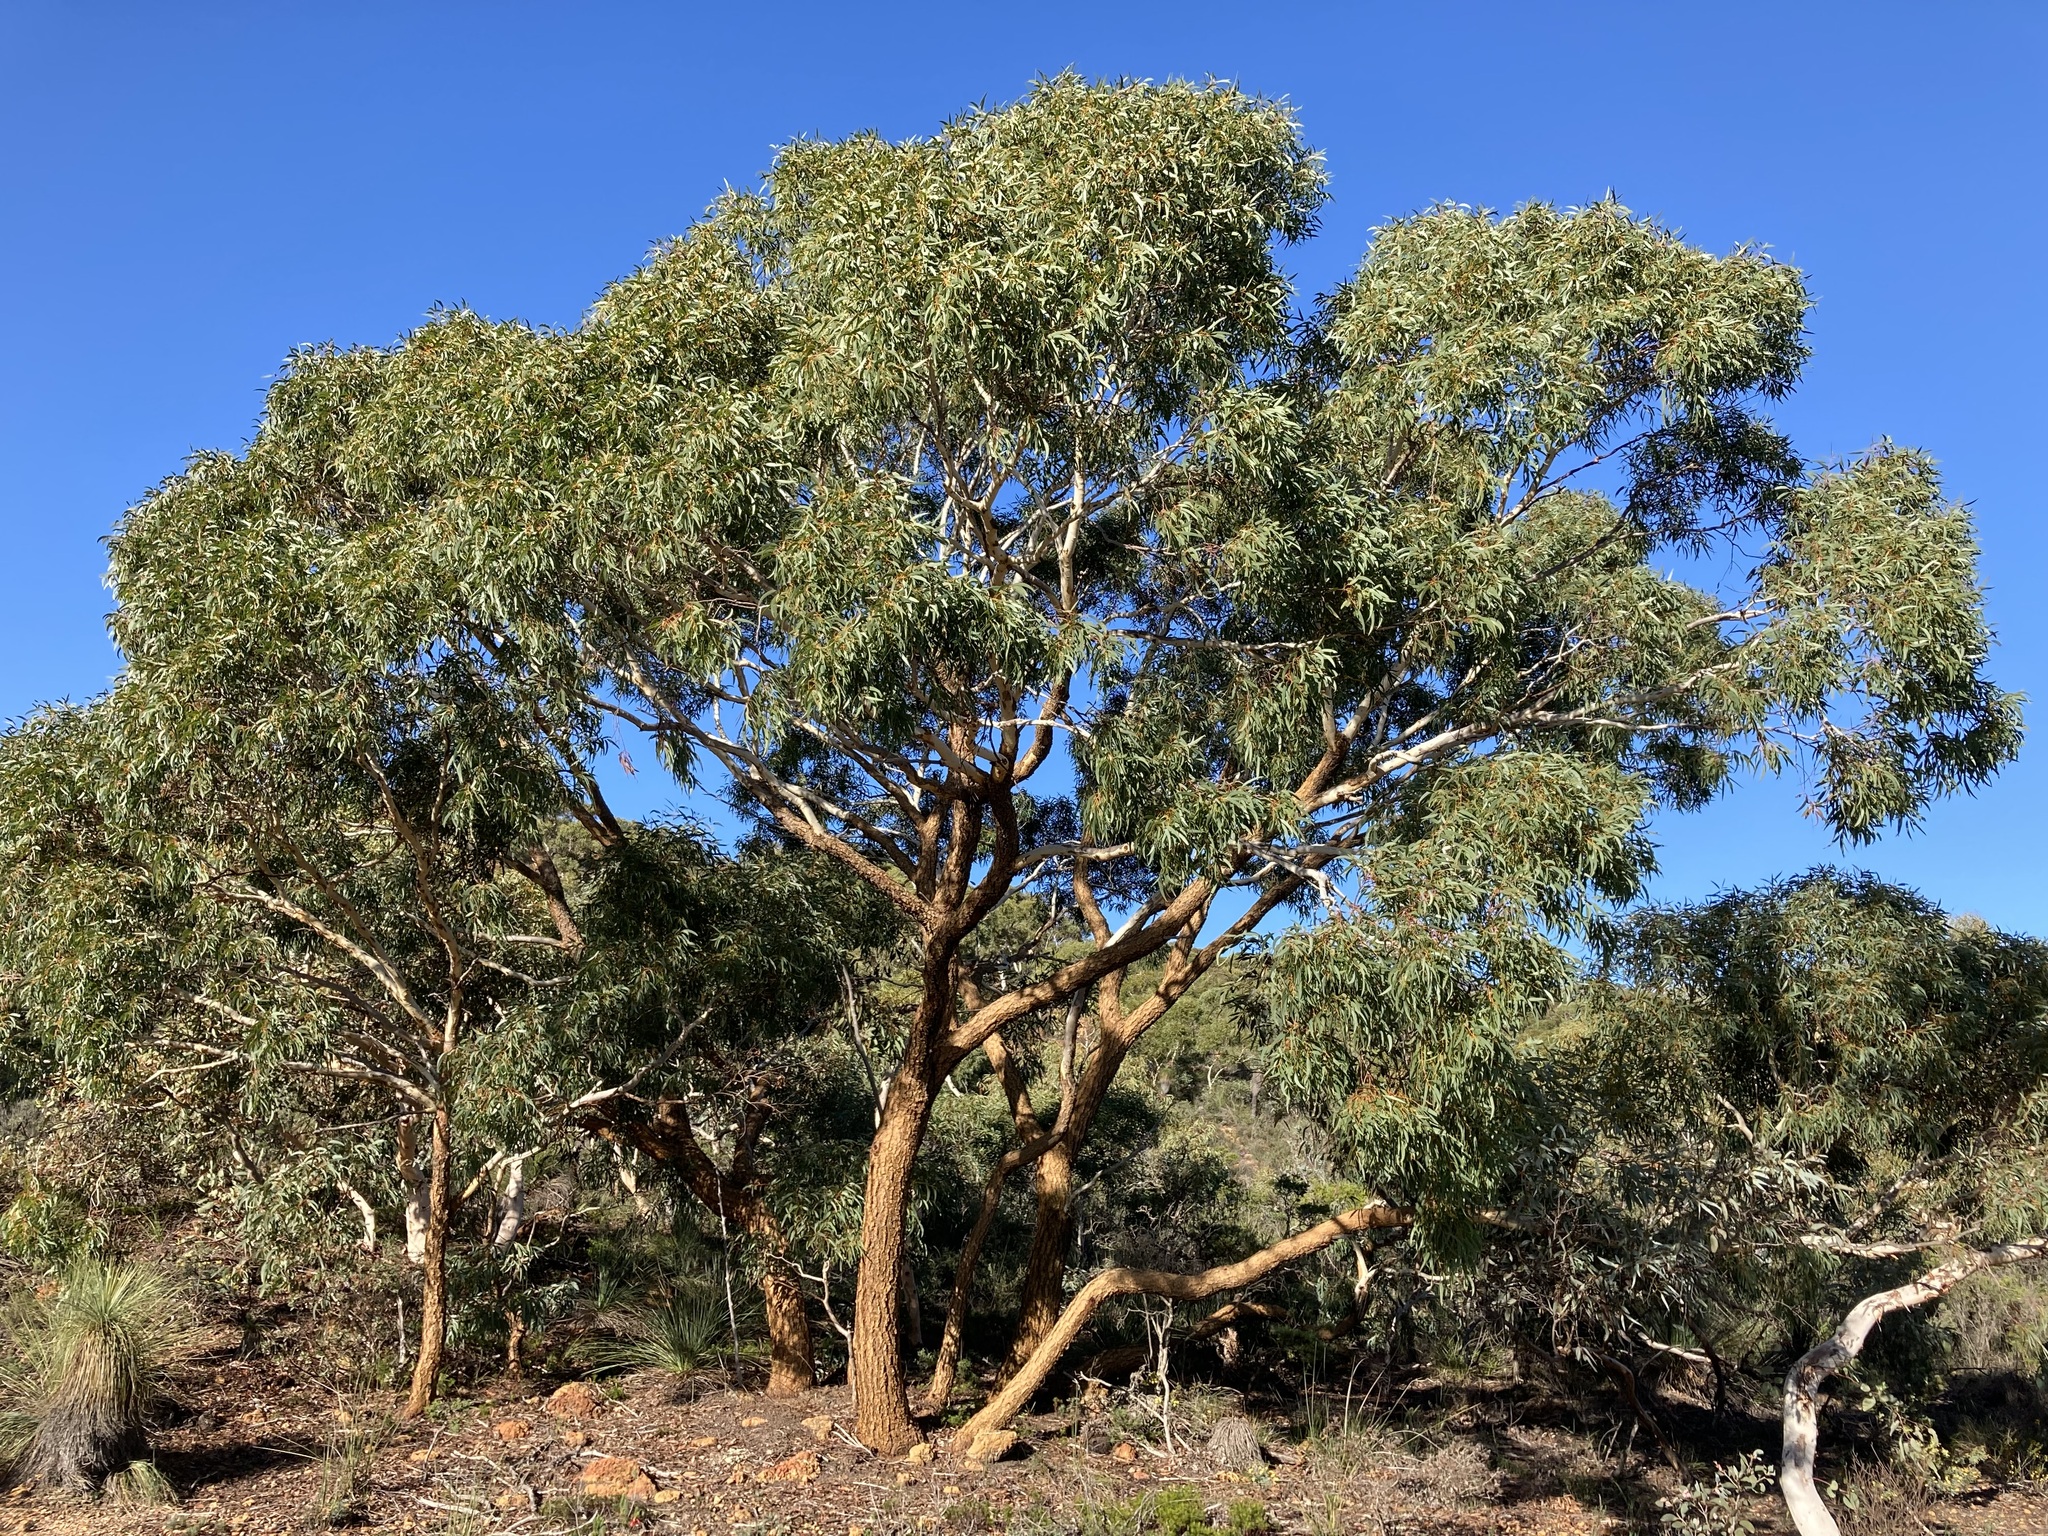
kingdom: Plantae
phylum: Tracheophyta
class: Magnoliopsida
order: Myrtales
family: Myrtaceae
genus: Eucalyptus
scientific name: Eucalyptus suberea
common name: Cork mallee
